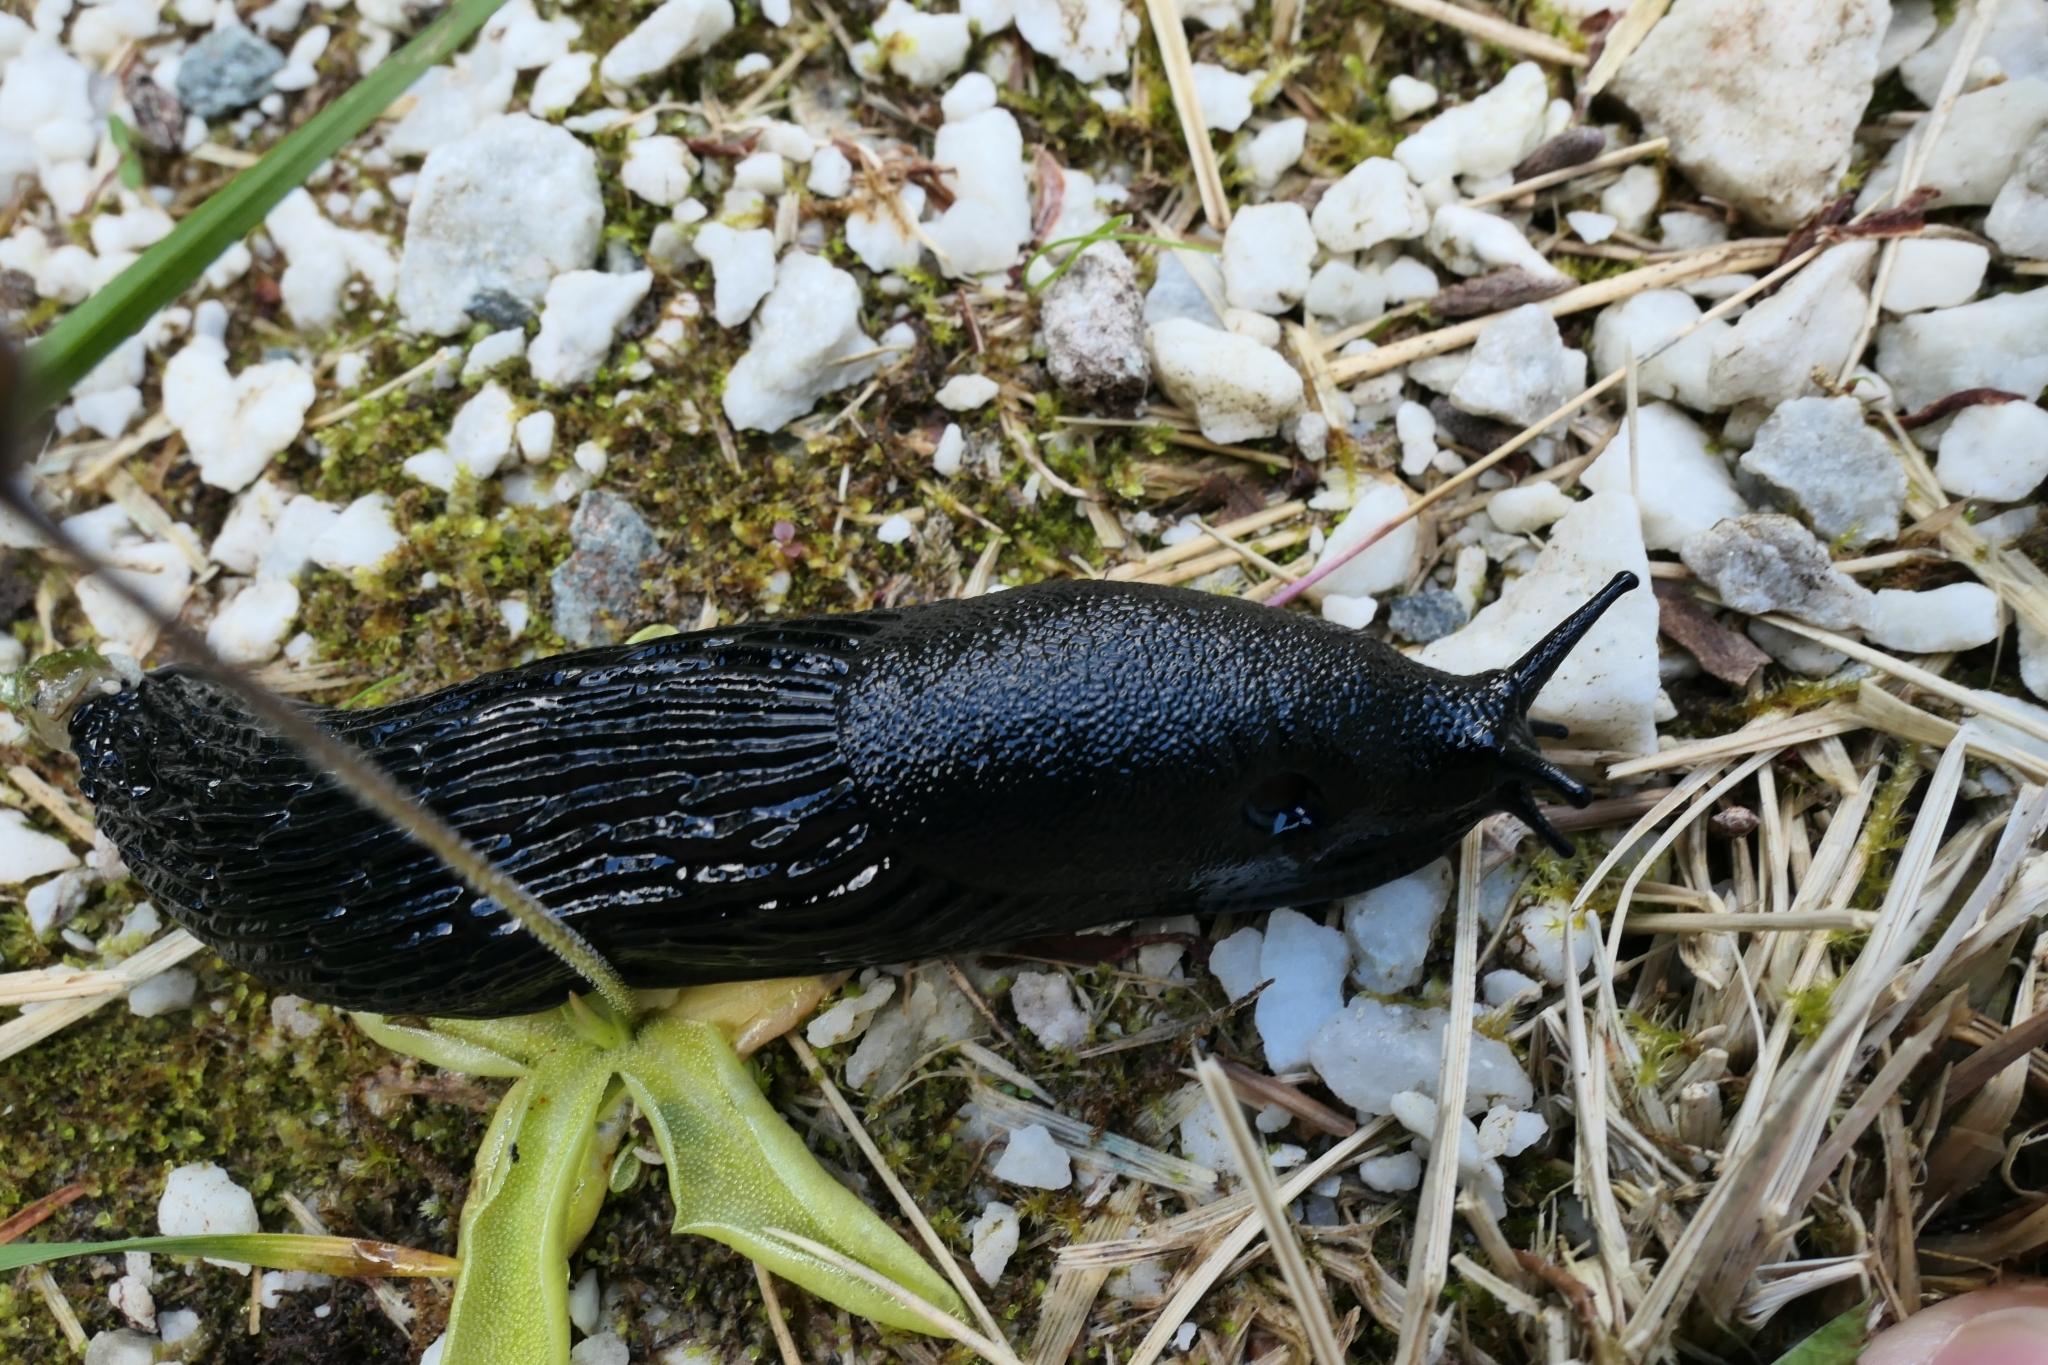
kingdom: Animalia
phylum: Mollusca
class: Gastropoda
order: Stylommatophora
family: Arionidae
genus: Arion
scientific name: Arion ater
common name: Black arion
